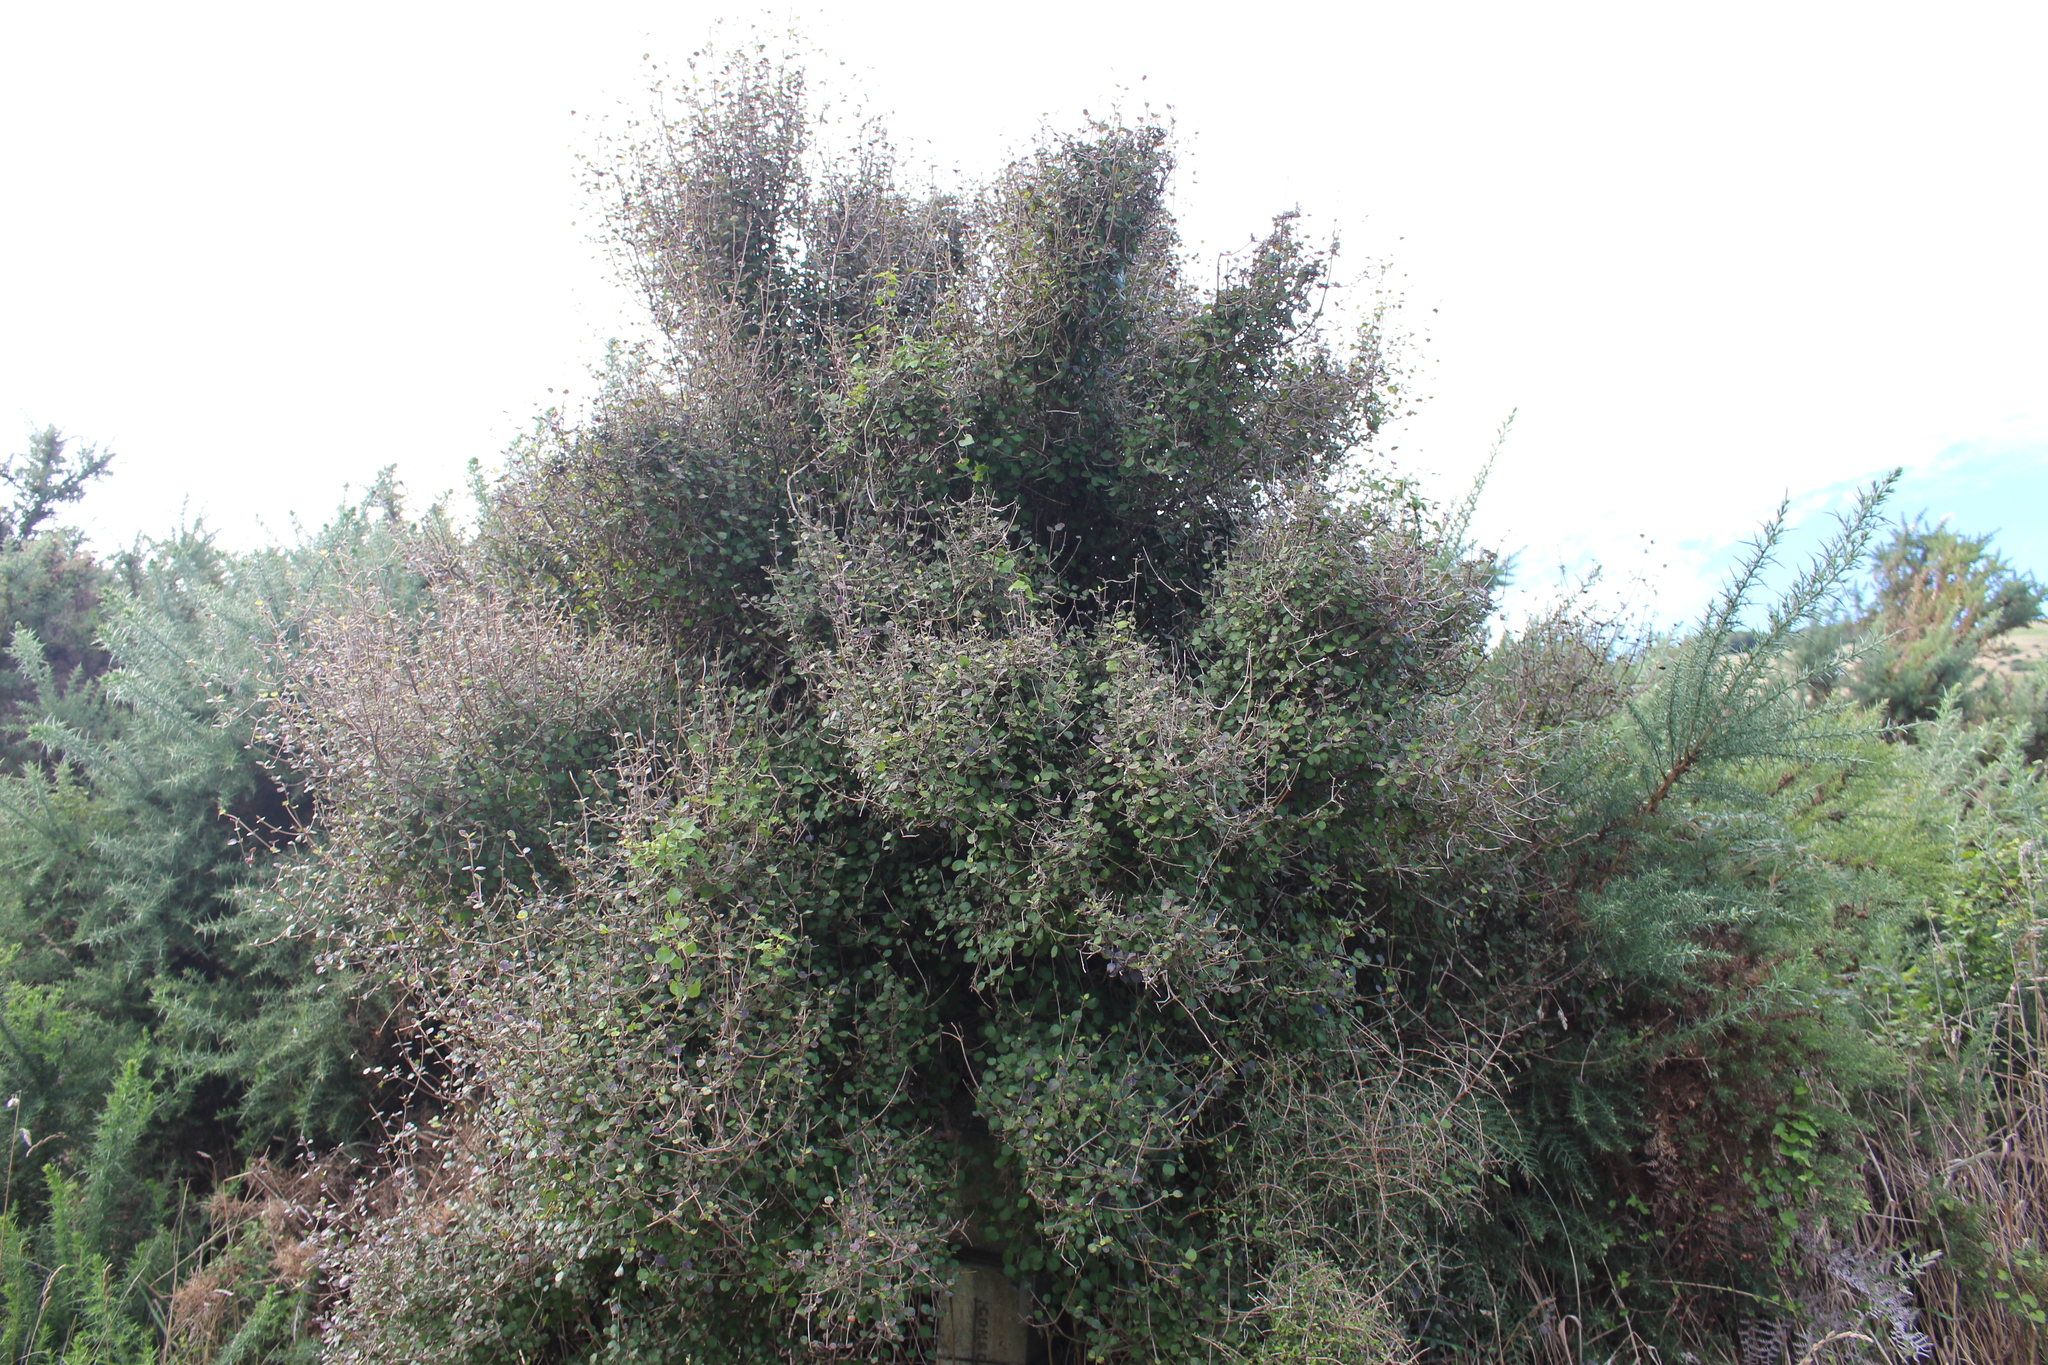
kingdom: Plantae
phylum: Tracheophyta
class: Magnoliopsida
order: Gentianales
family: Rubiaceae
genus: Coprosma
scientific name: Coprosma rotundifolia
